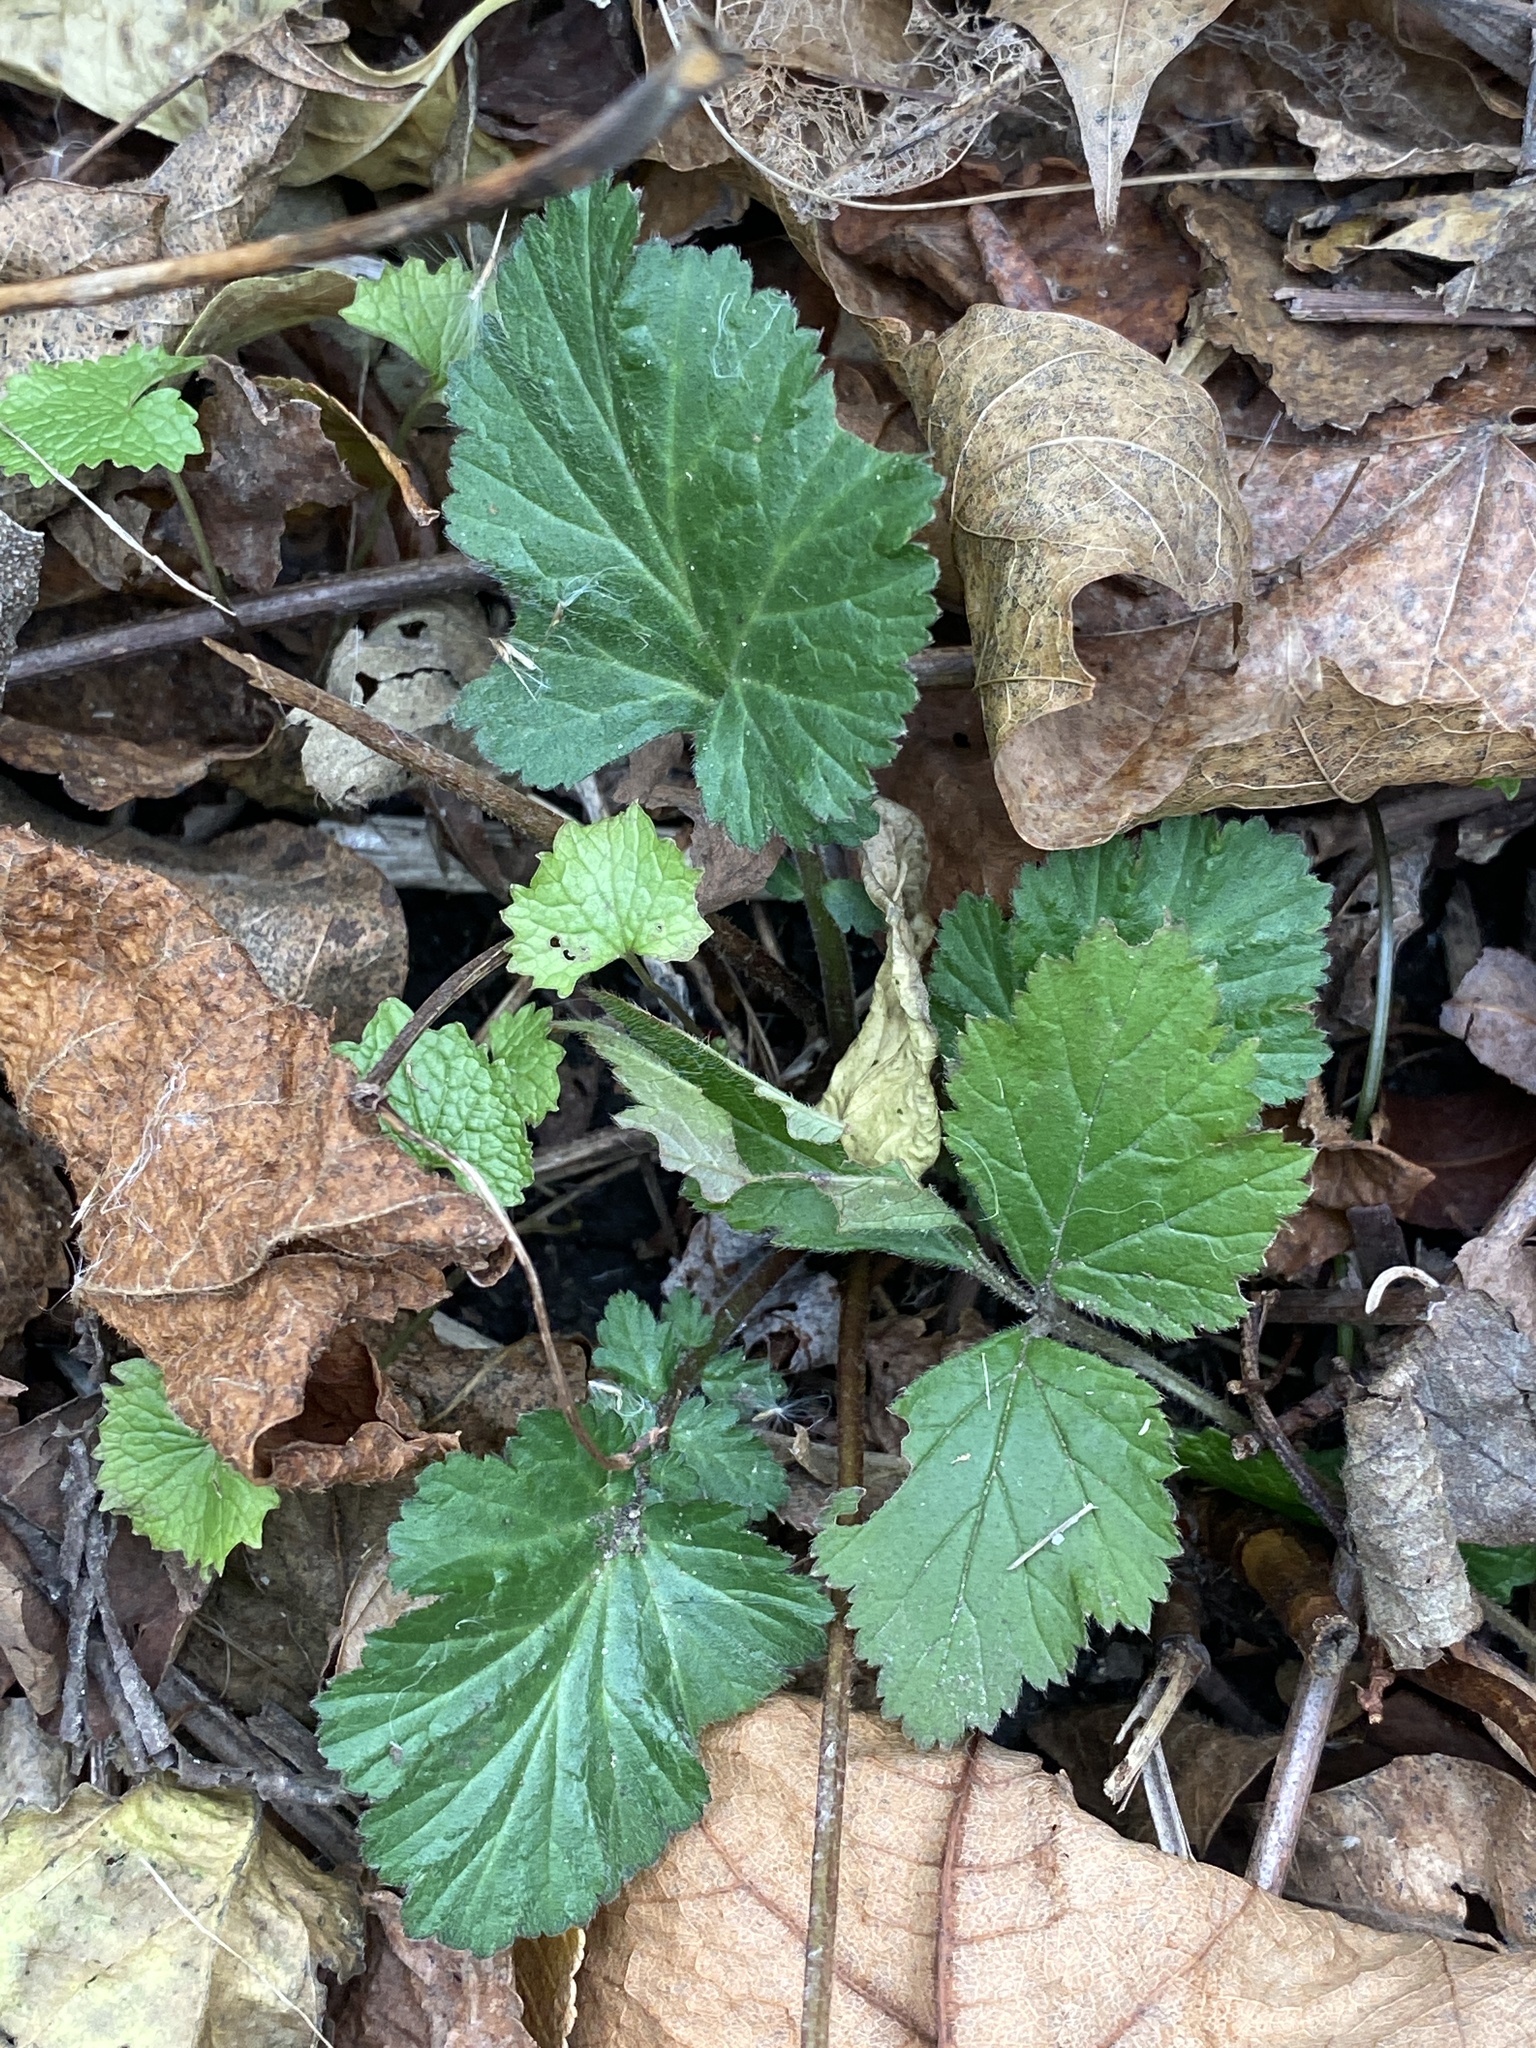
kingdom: Plantae
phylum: Tracheophyta
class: Magnoliopsida
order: Rosales
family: Rosaceae
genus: Geum
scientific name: Geum canadense
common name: White avens
